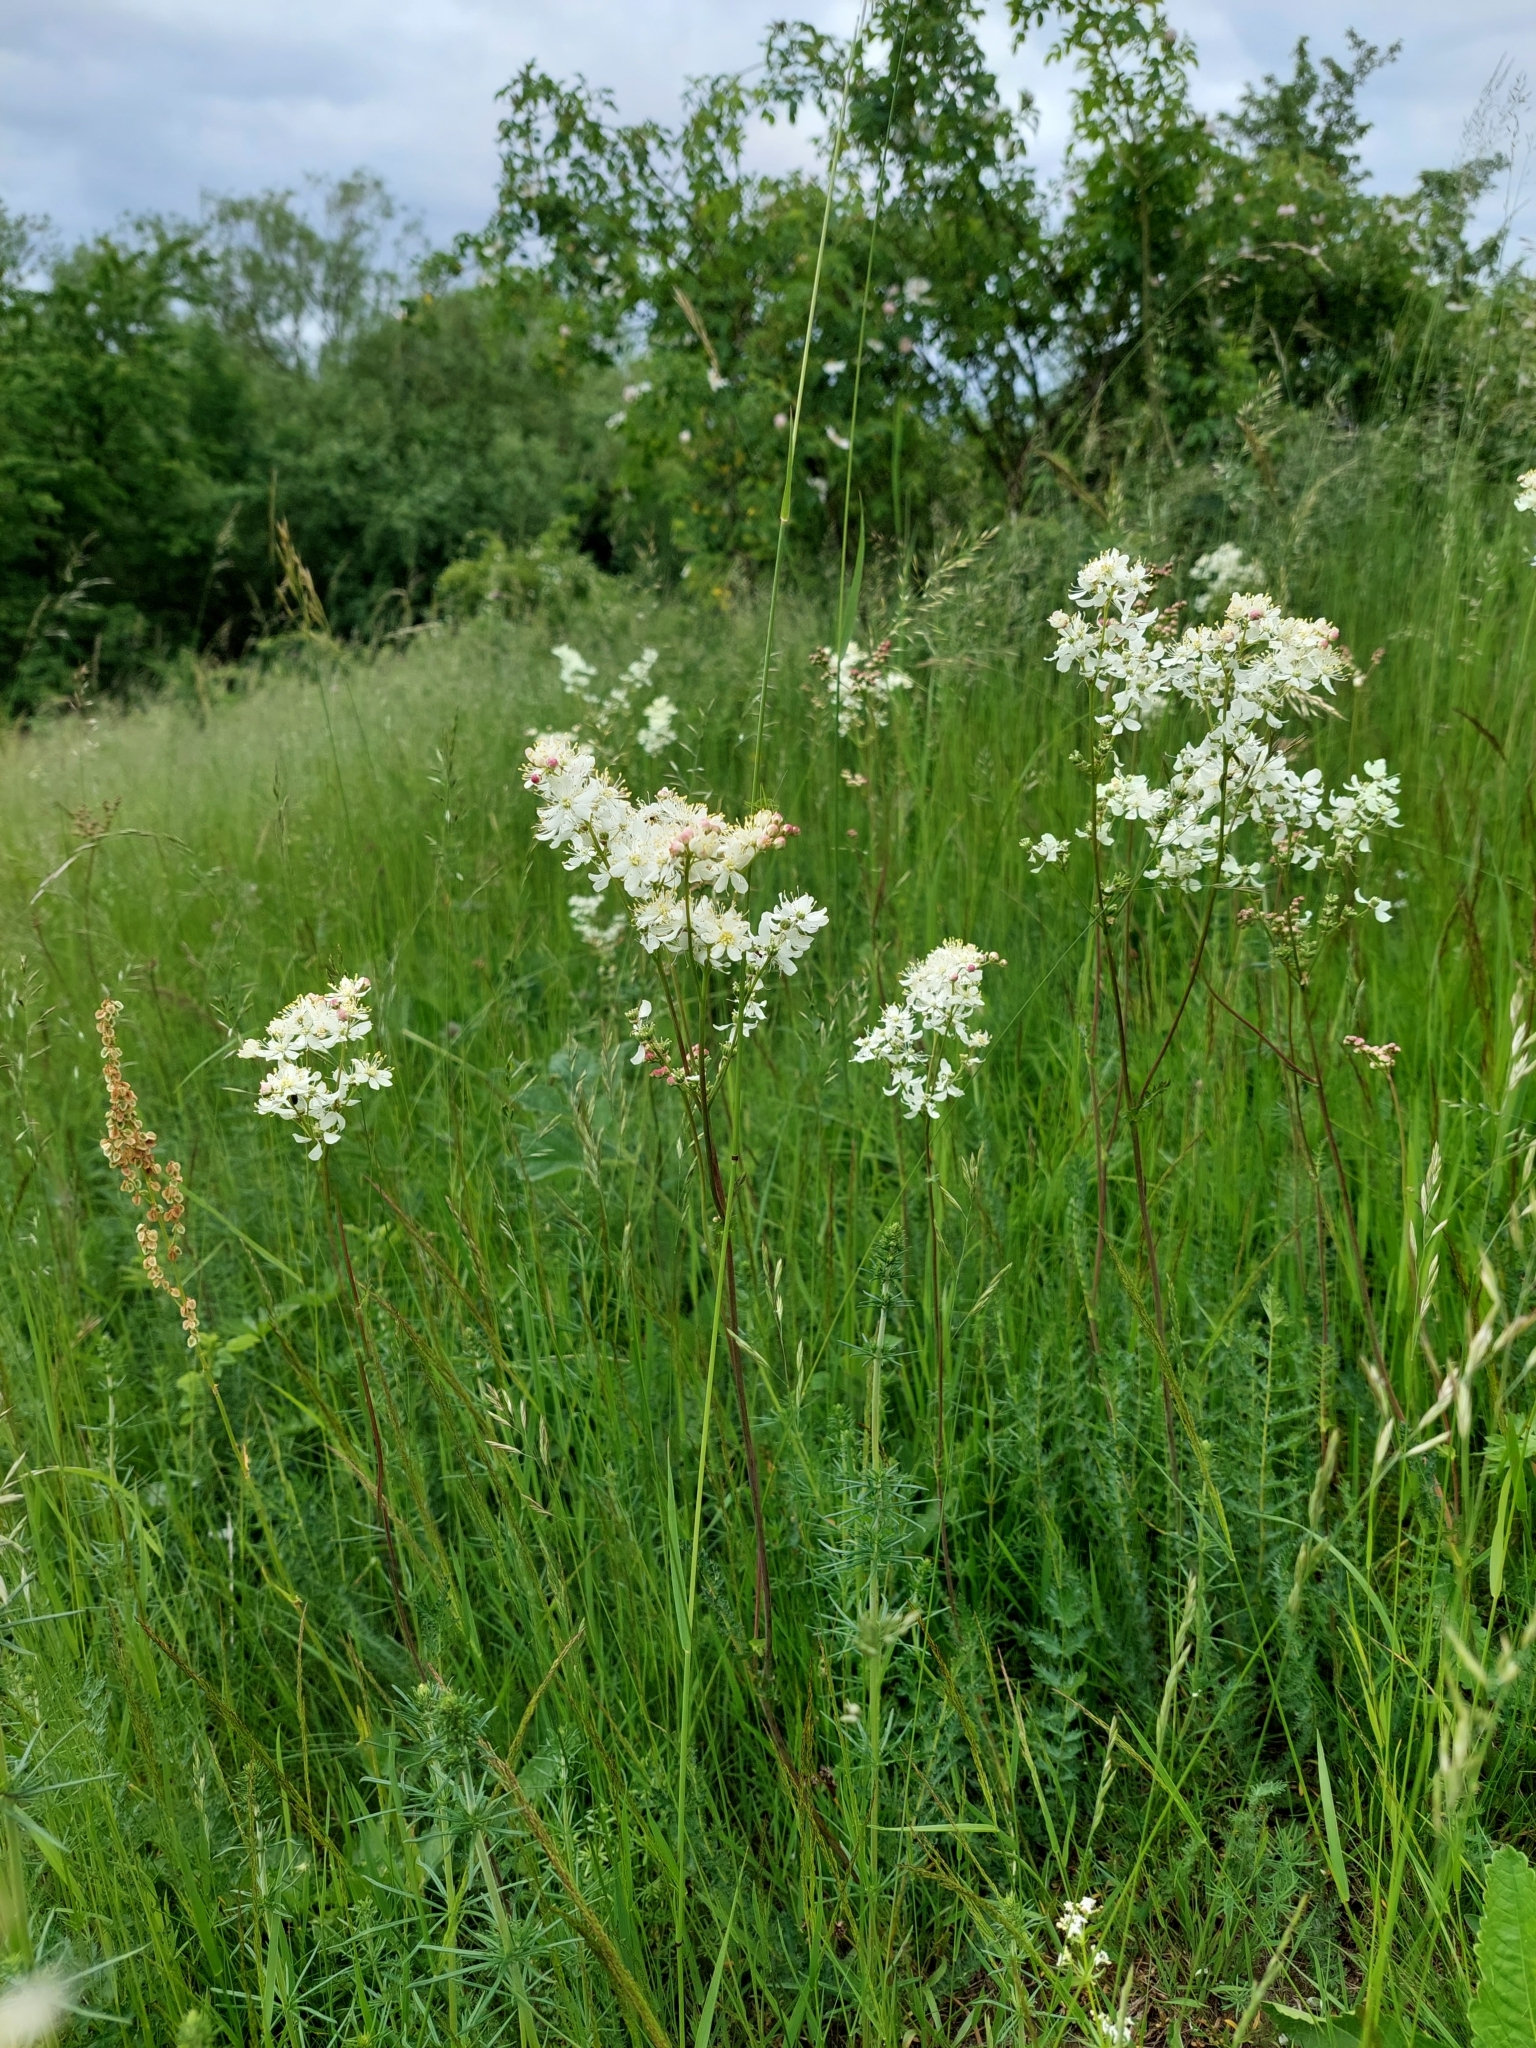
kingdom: Plantae
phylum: Tracheophyta
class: Magnoliopsida
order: Rosales
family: Rosaceae
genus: Filipendula
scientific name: Filipendula vulgaris
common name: Dropwort
